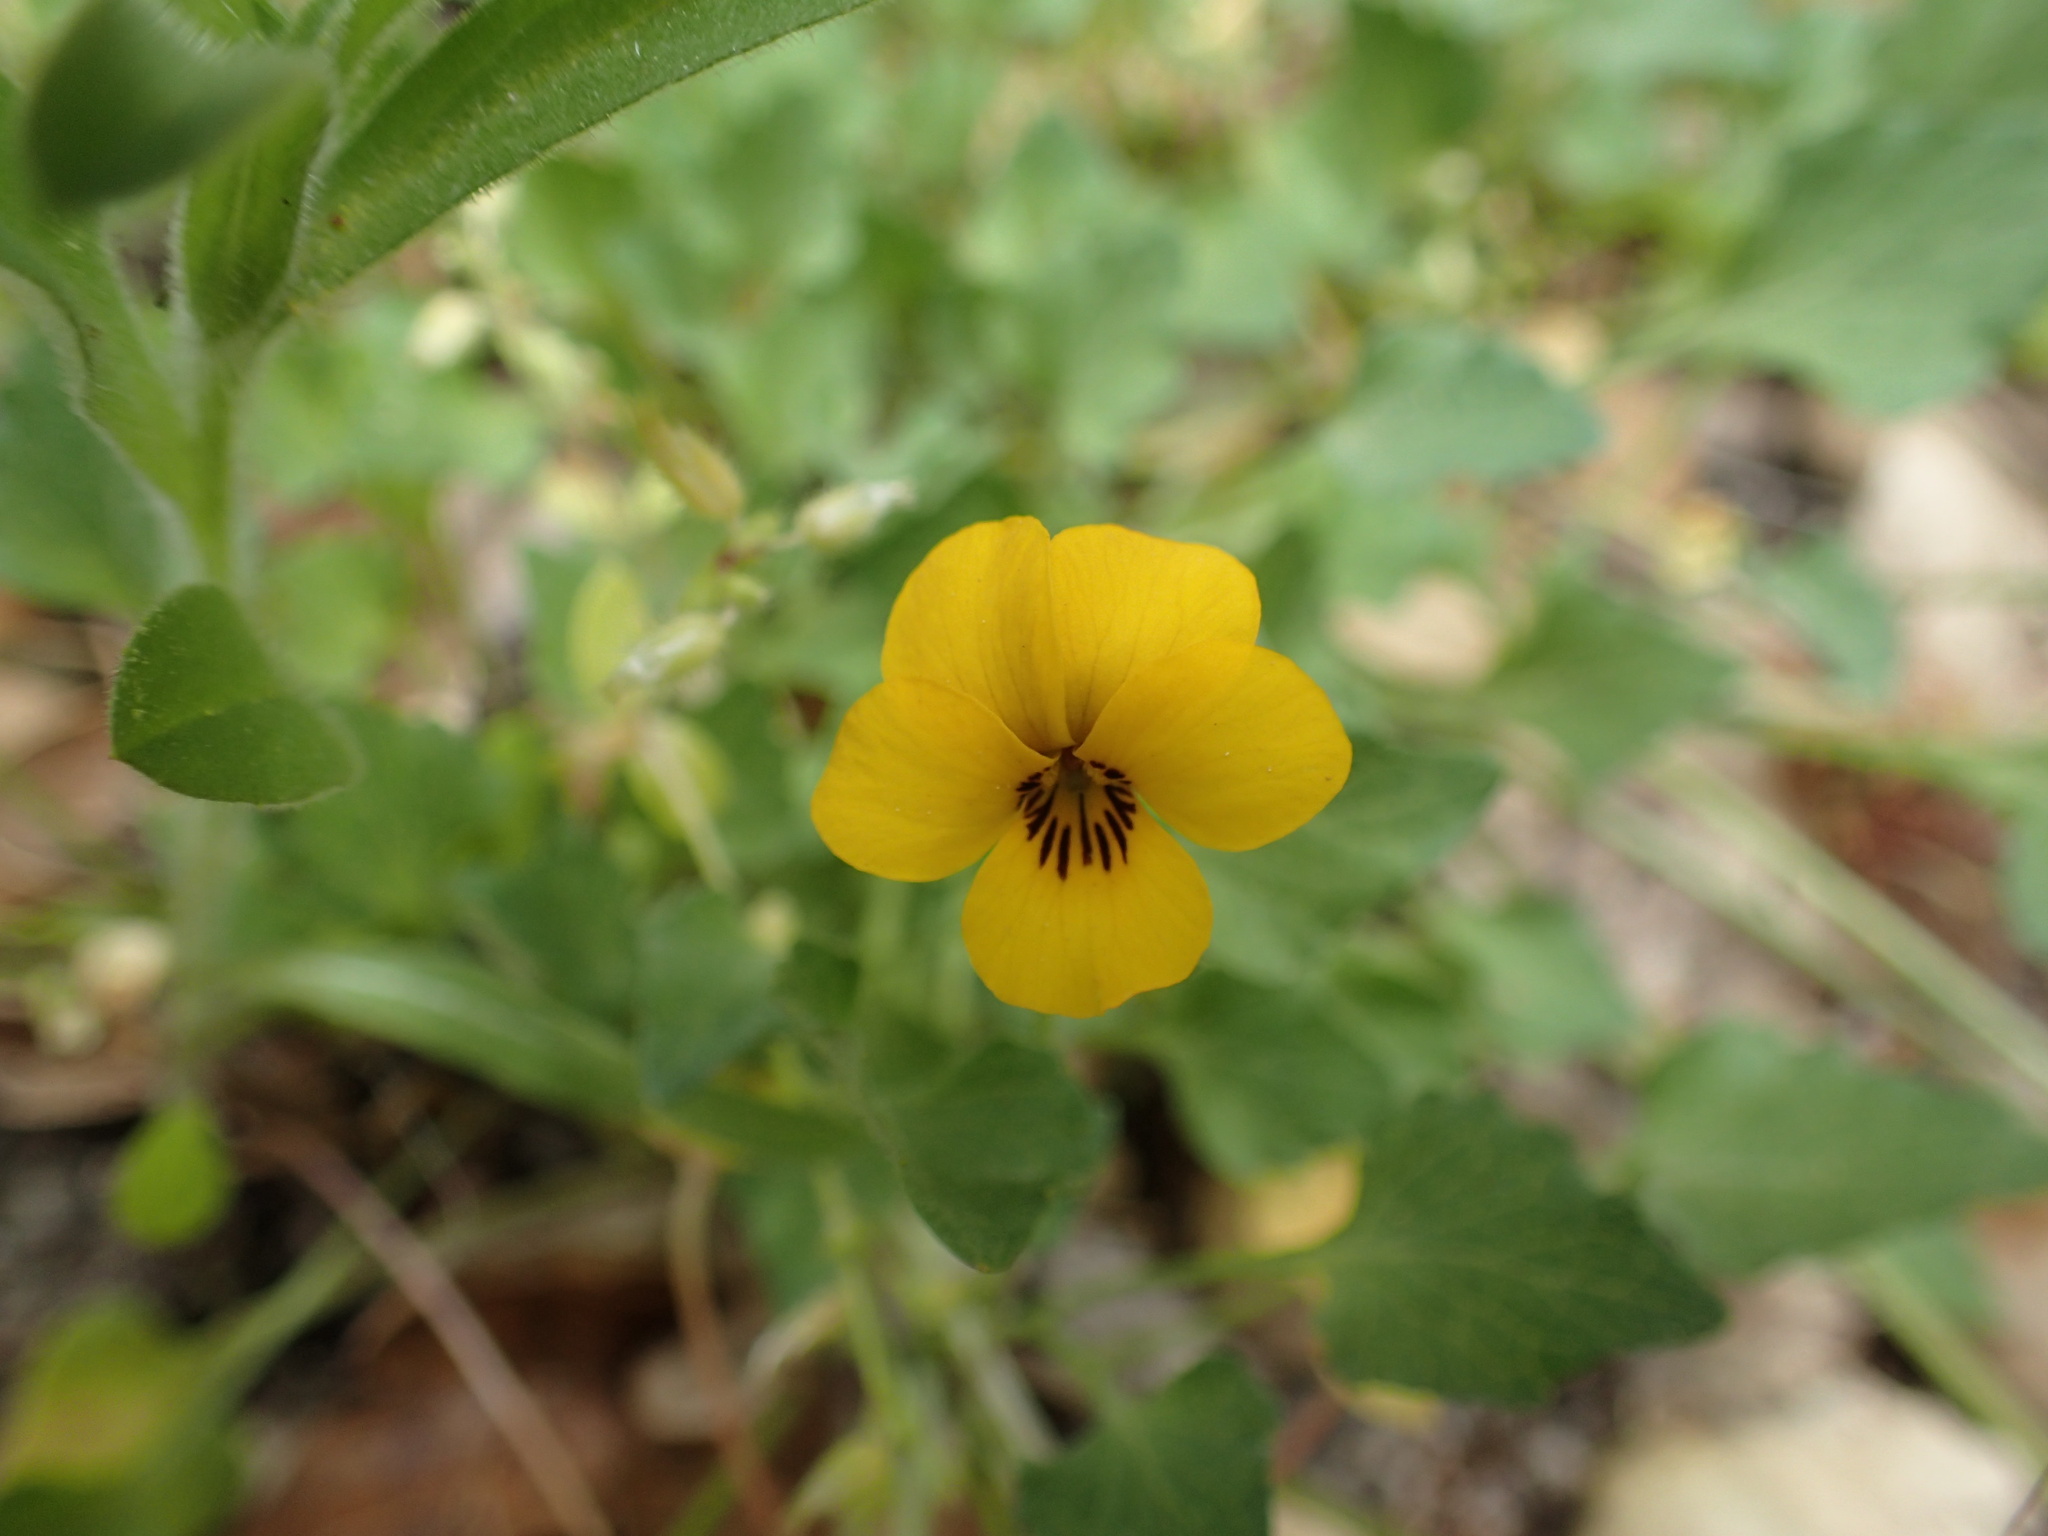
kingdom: Plantae
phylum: Tracheophyta
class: Magnoliopsida
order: Malpighiales
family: Violaceae
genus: Viola
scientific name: Viola pedunculata
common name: California golden violet
